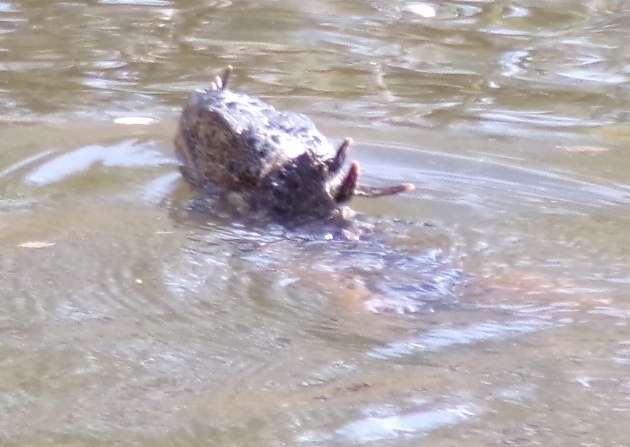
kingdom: Animalia
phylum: Chordata
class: Squamata
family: Iguanidae
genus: Iguana
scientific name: Iguana iguana
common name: Green iguana
